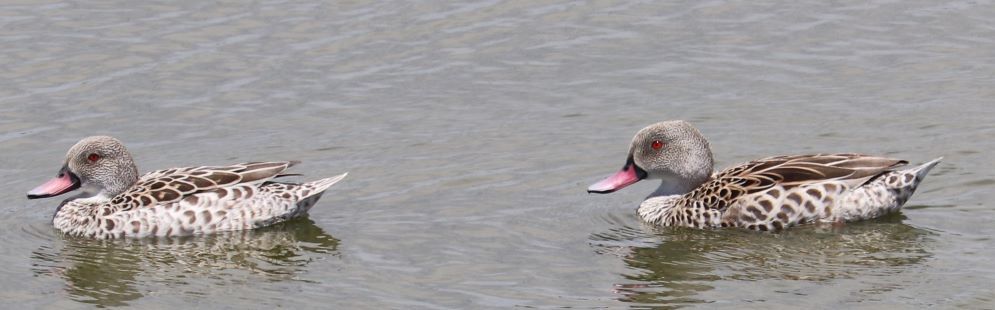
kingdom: Animalia
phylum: Chordata
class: Aves
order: Anseriformes
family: Anatidae
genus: Anas
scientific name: Anas capensis
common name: Cape teal
